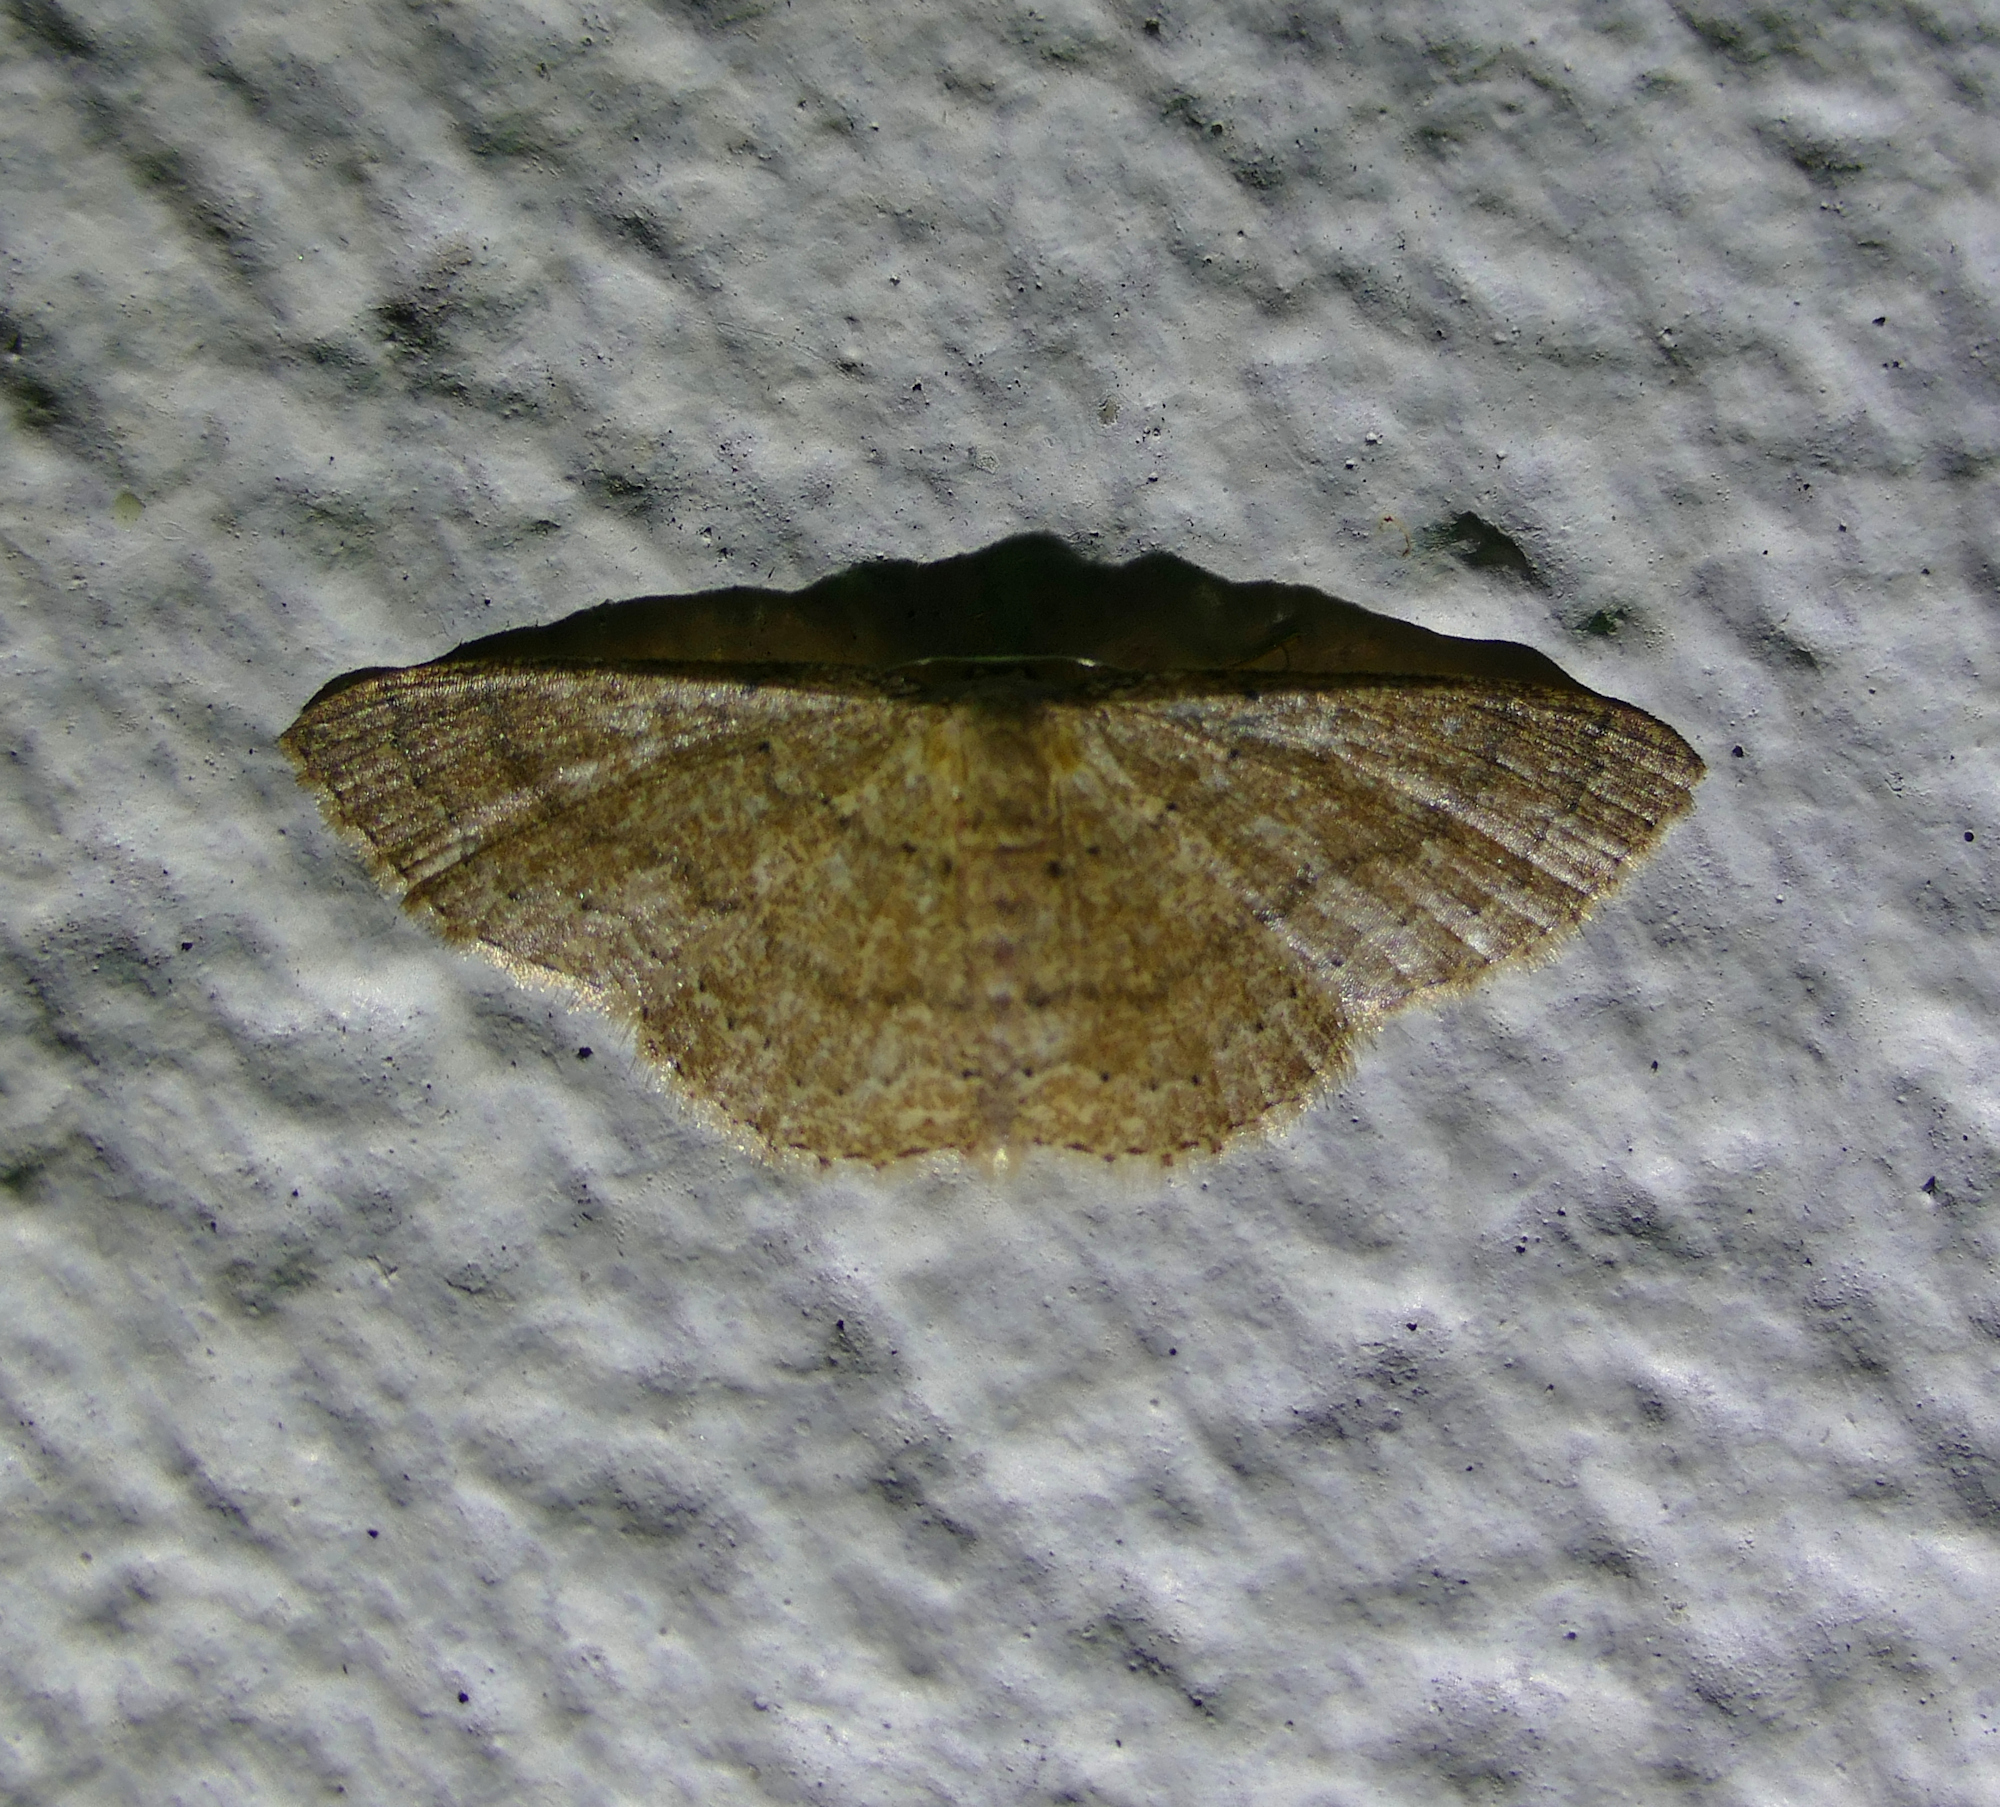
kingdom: Animalia
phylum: Arthropoda
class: Insecta
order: Lepidoptera
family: Geometridae
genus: Pleuroprucha
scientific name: Pleuroprucha insulsaria
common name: Common tan wave
